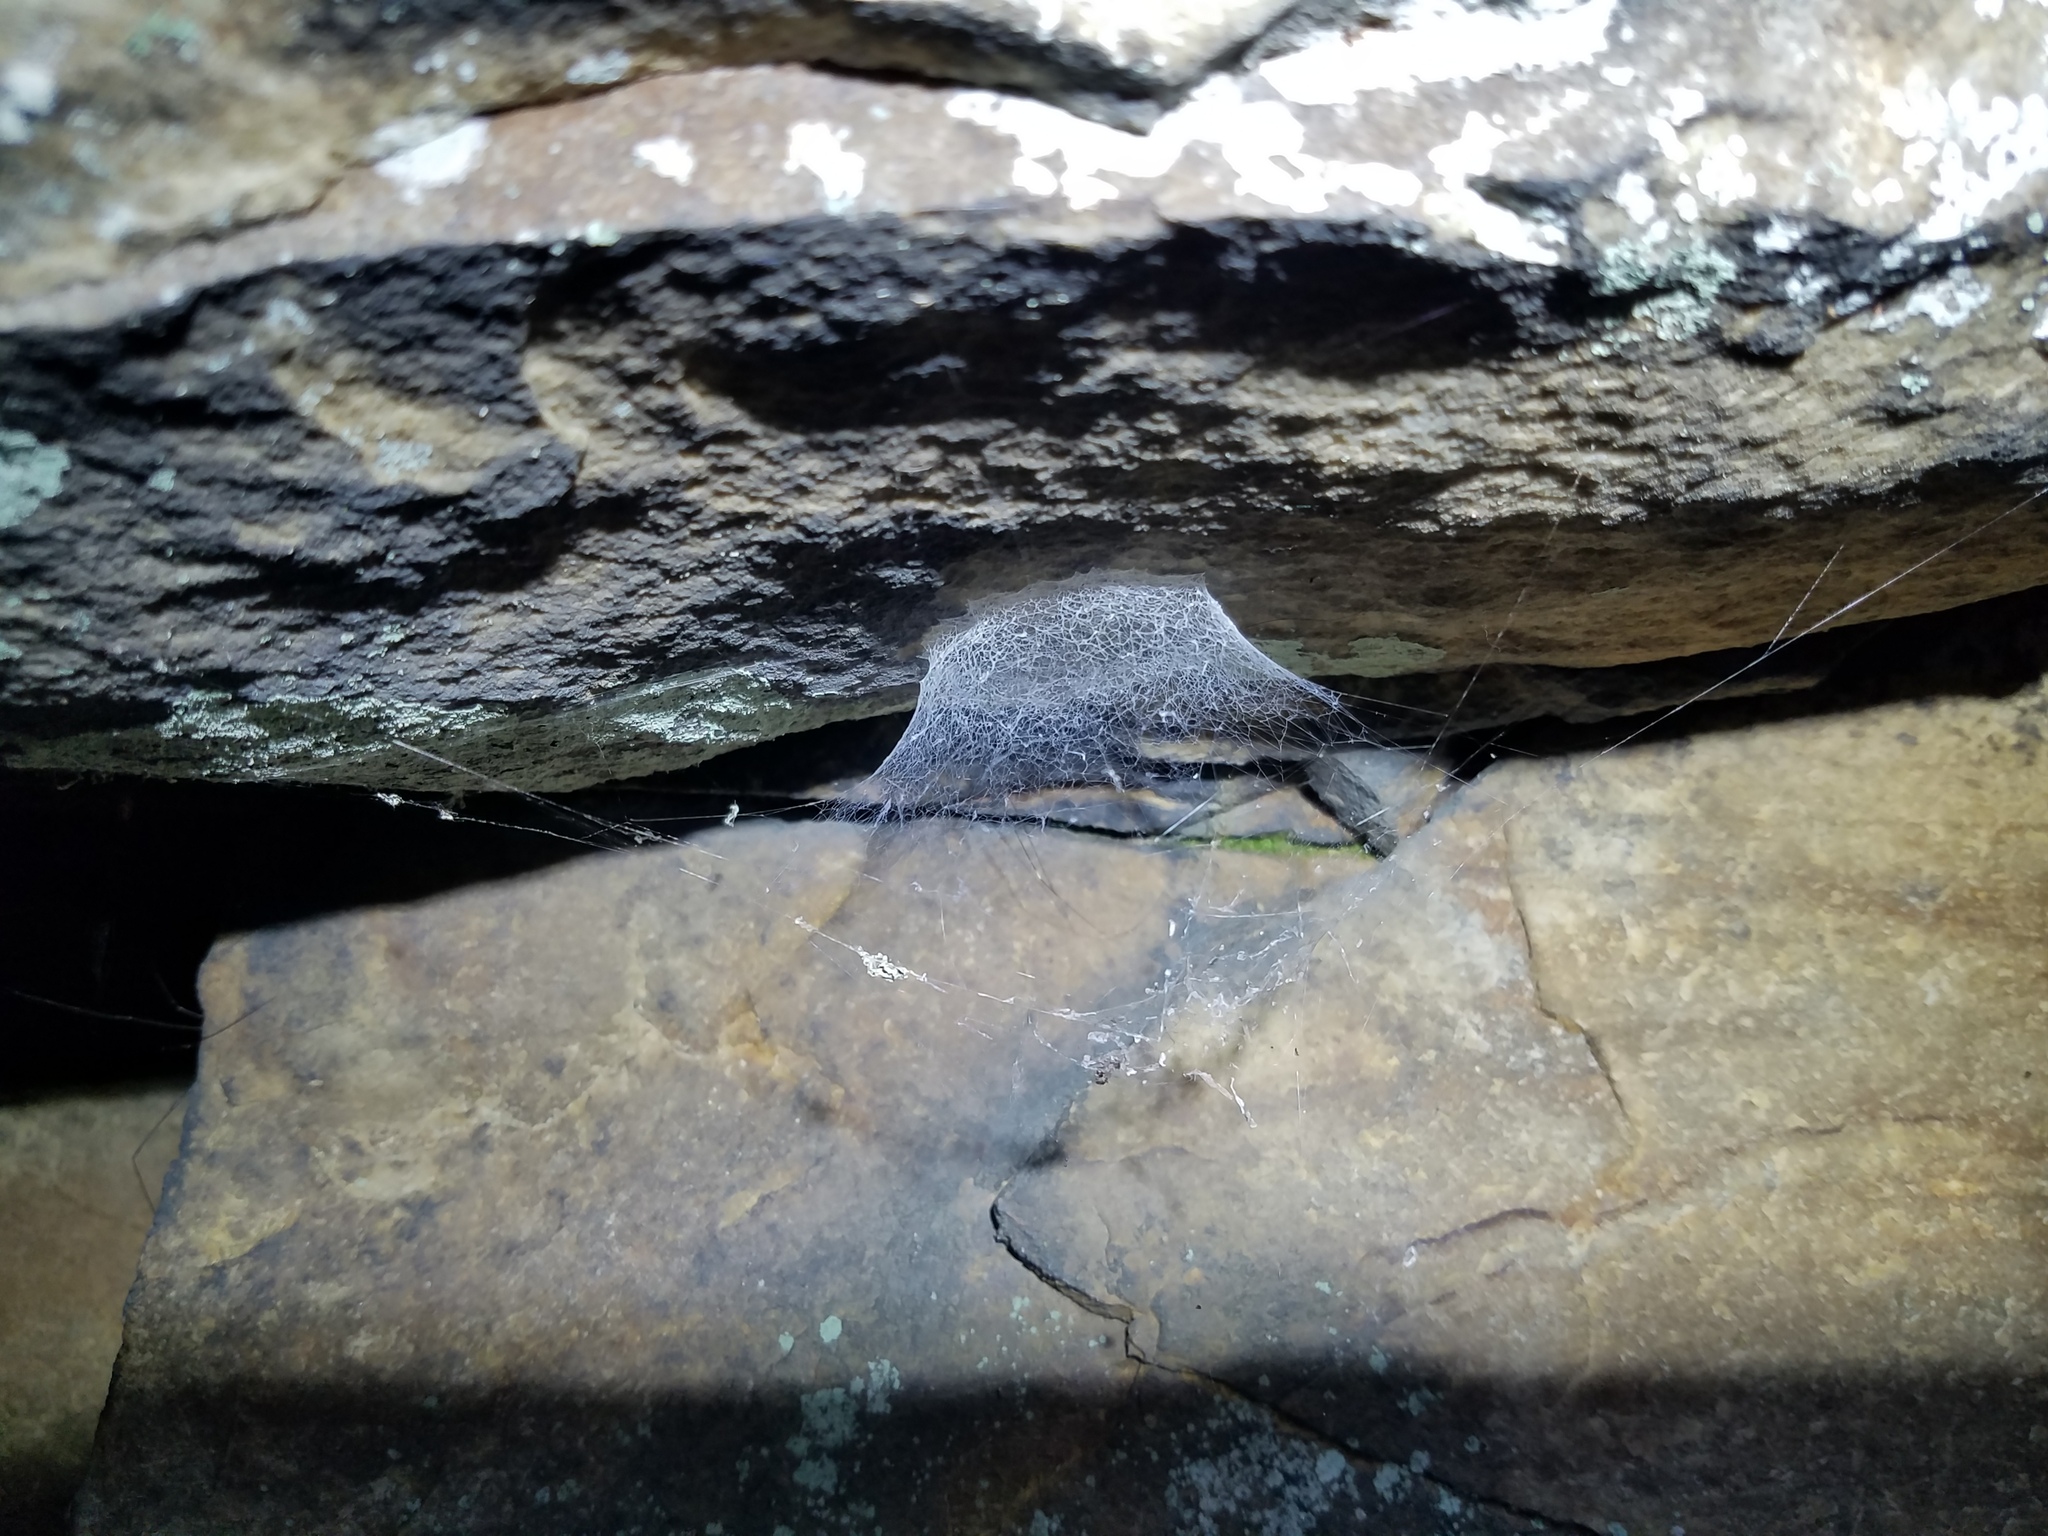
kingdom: Animalia
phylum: Arthropoda
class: Arachnida
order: Araneae
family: Hypochilidae
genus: Hypochilus
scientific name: Hypochilus thorelli
